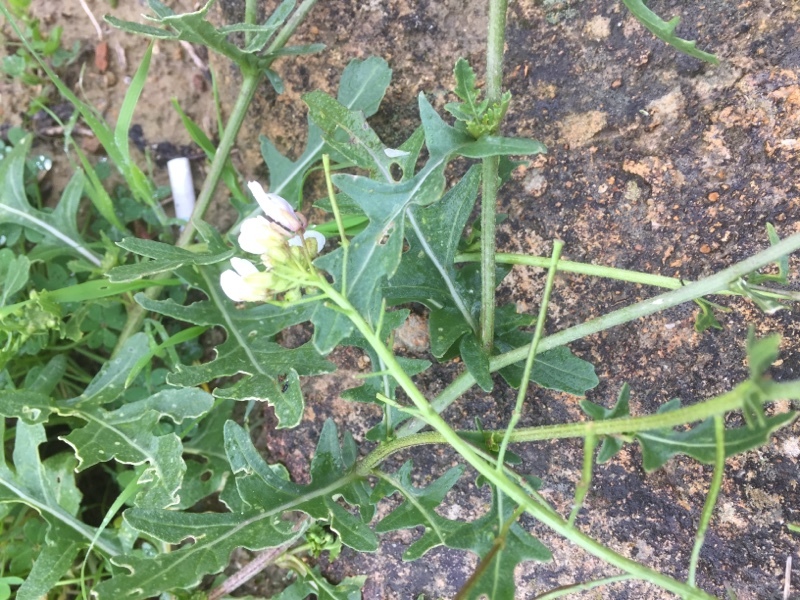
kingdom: Plantae
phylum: Tracheophyta
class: Magnoliopsida
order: Brassicales
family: Brassicaceae
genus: Diplotaxis
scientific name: Diplotaxis tenuifolia
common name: Perennial wall-rocket
